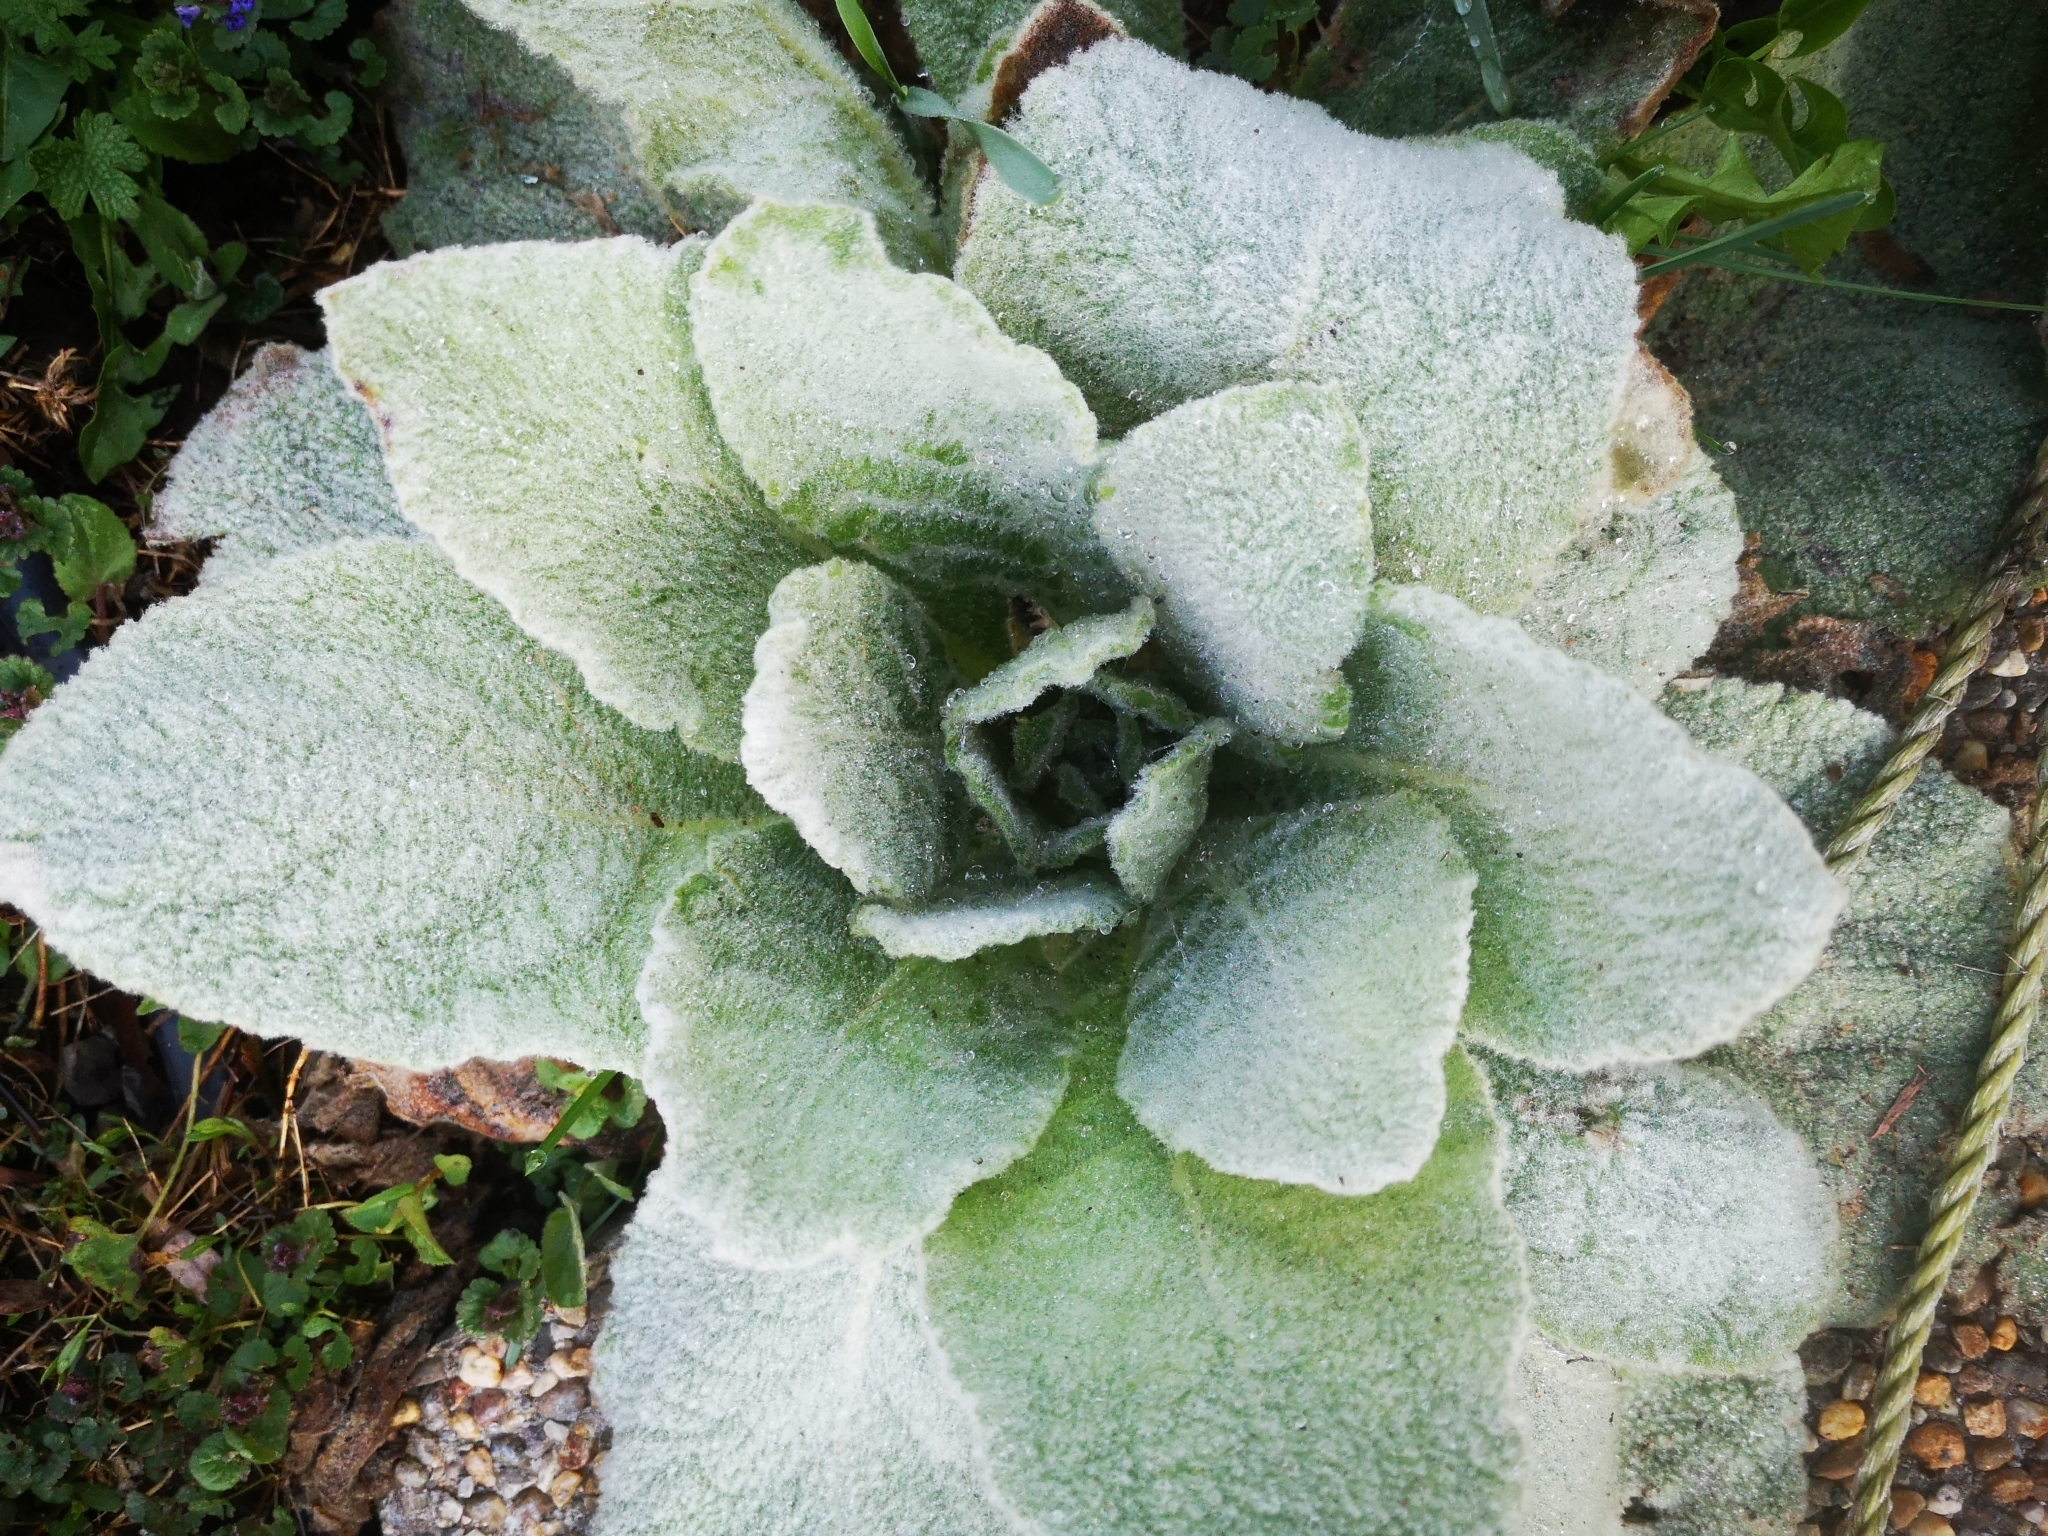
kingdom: Plantae
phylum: Tracheophyta
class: Magnoliopsida
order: Lamiales
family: Scrophulariaceae
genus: Verbascum
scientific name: Verbascum thapsus
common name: Common mullein
